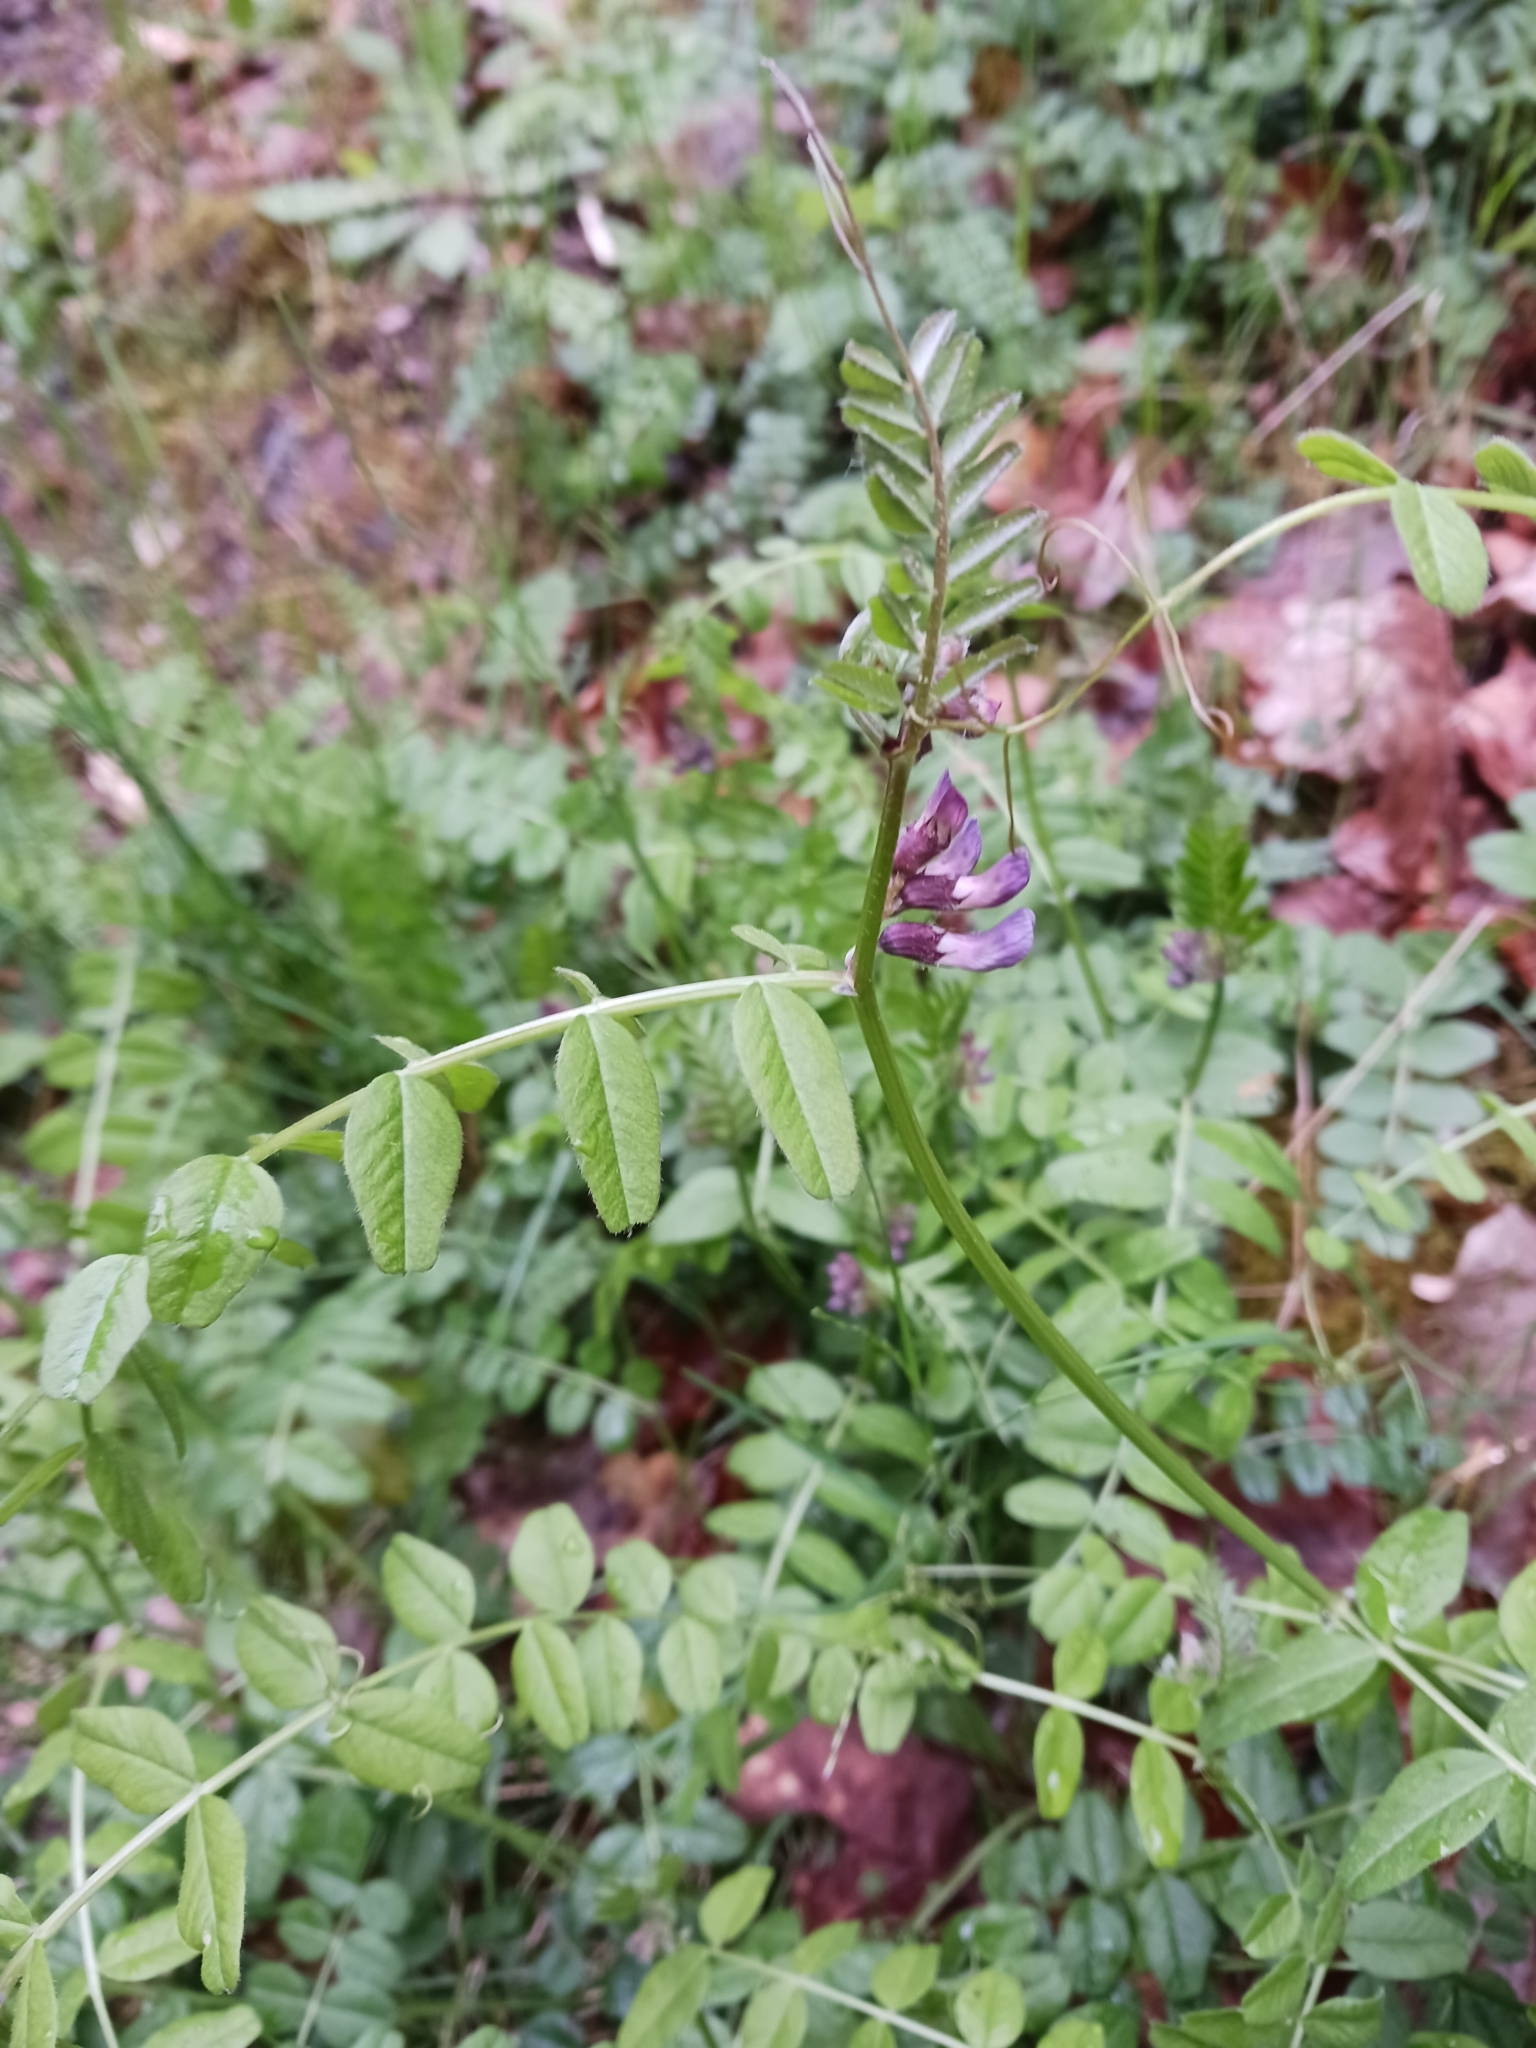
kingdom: Plantae
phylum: Tracheophyta
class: Magnoliopsida
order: Fabales
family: Fabaceae
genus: Vicia
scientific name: Vicia sepium
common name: Bush vetch
